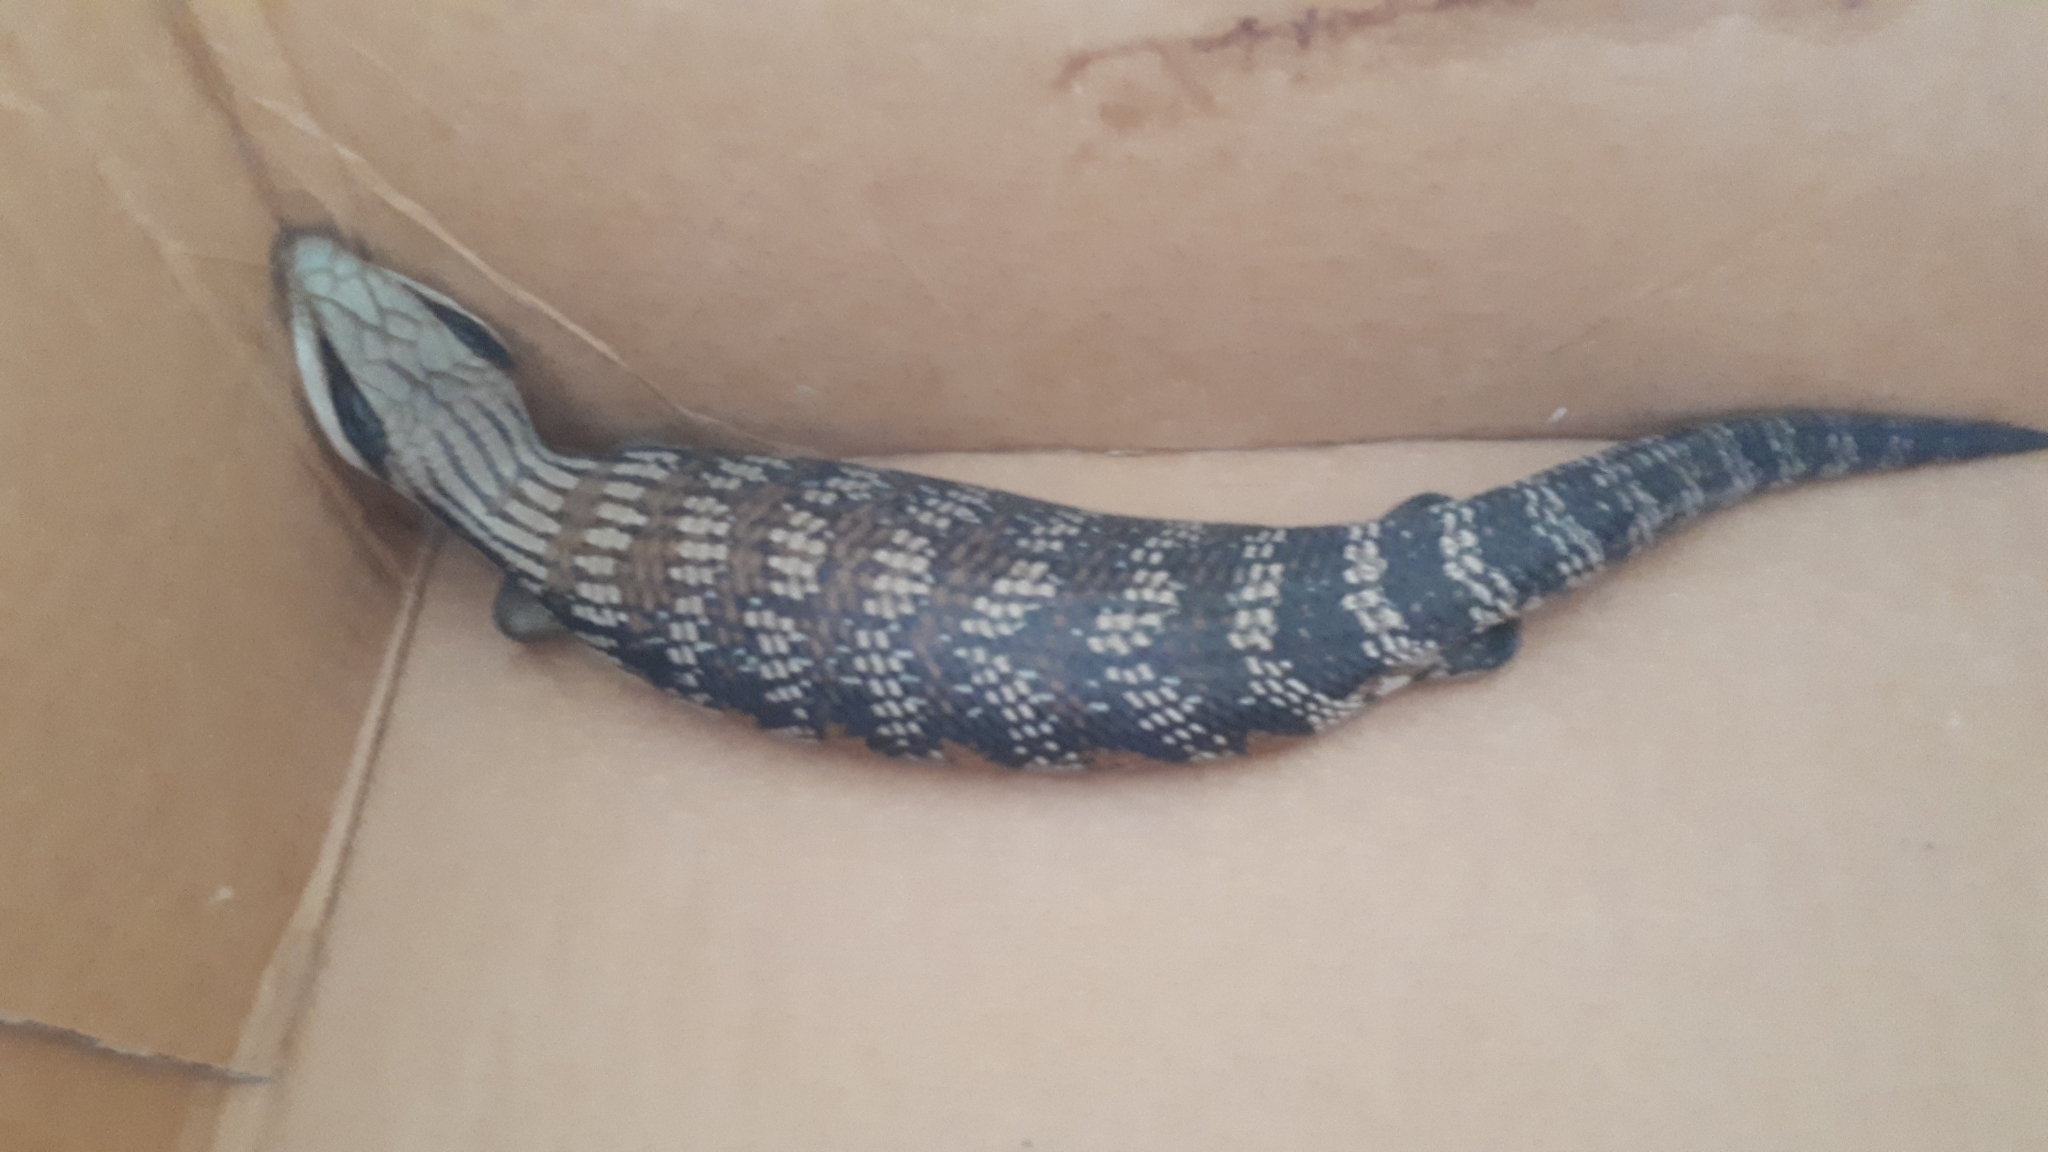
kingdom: Animalia
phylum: Chordata
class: Squamata
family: Scincidae
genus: Tiliqua
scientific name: Tiliqua scincoides
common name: Common bluetongue
